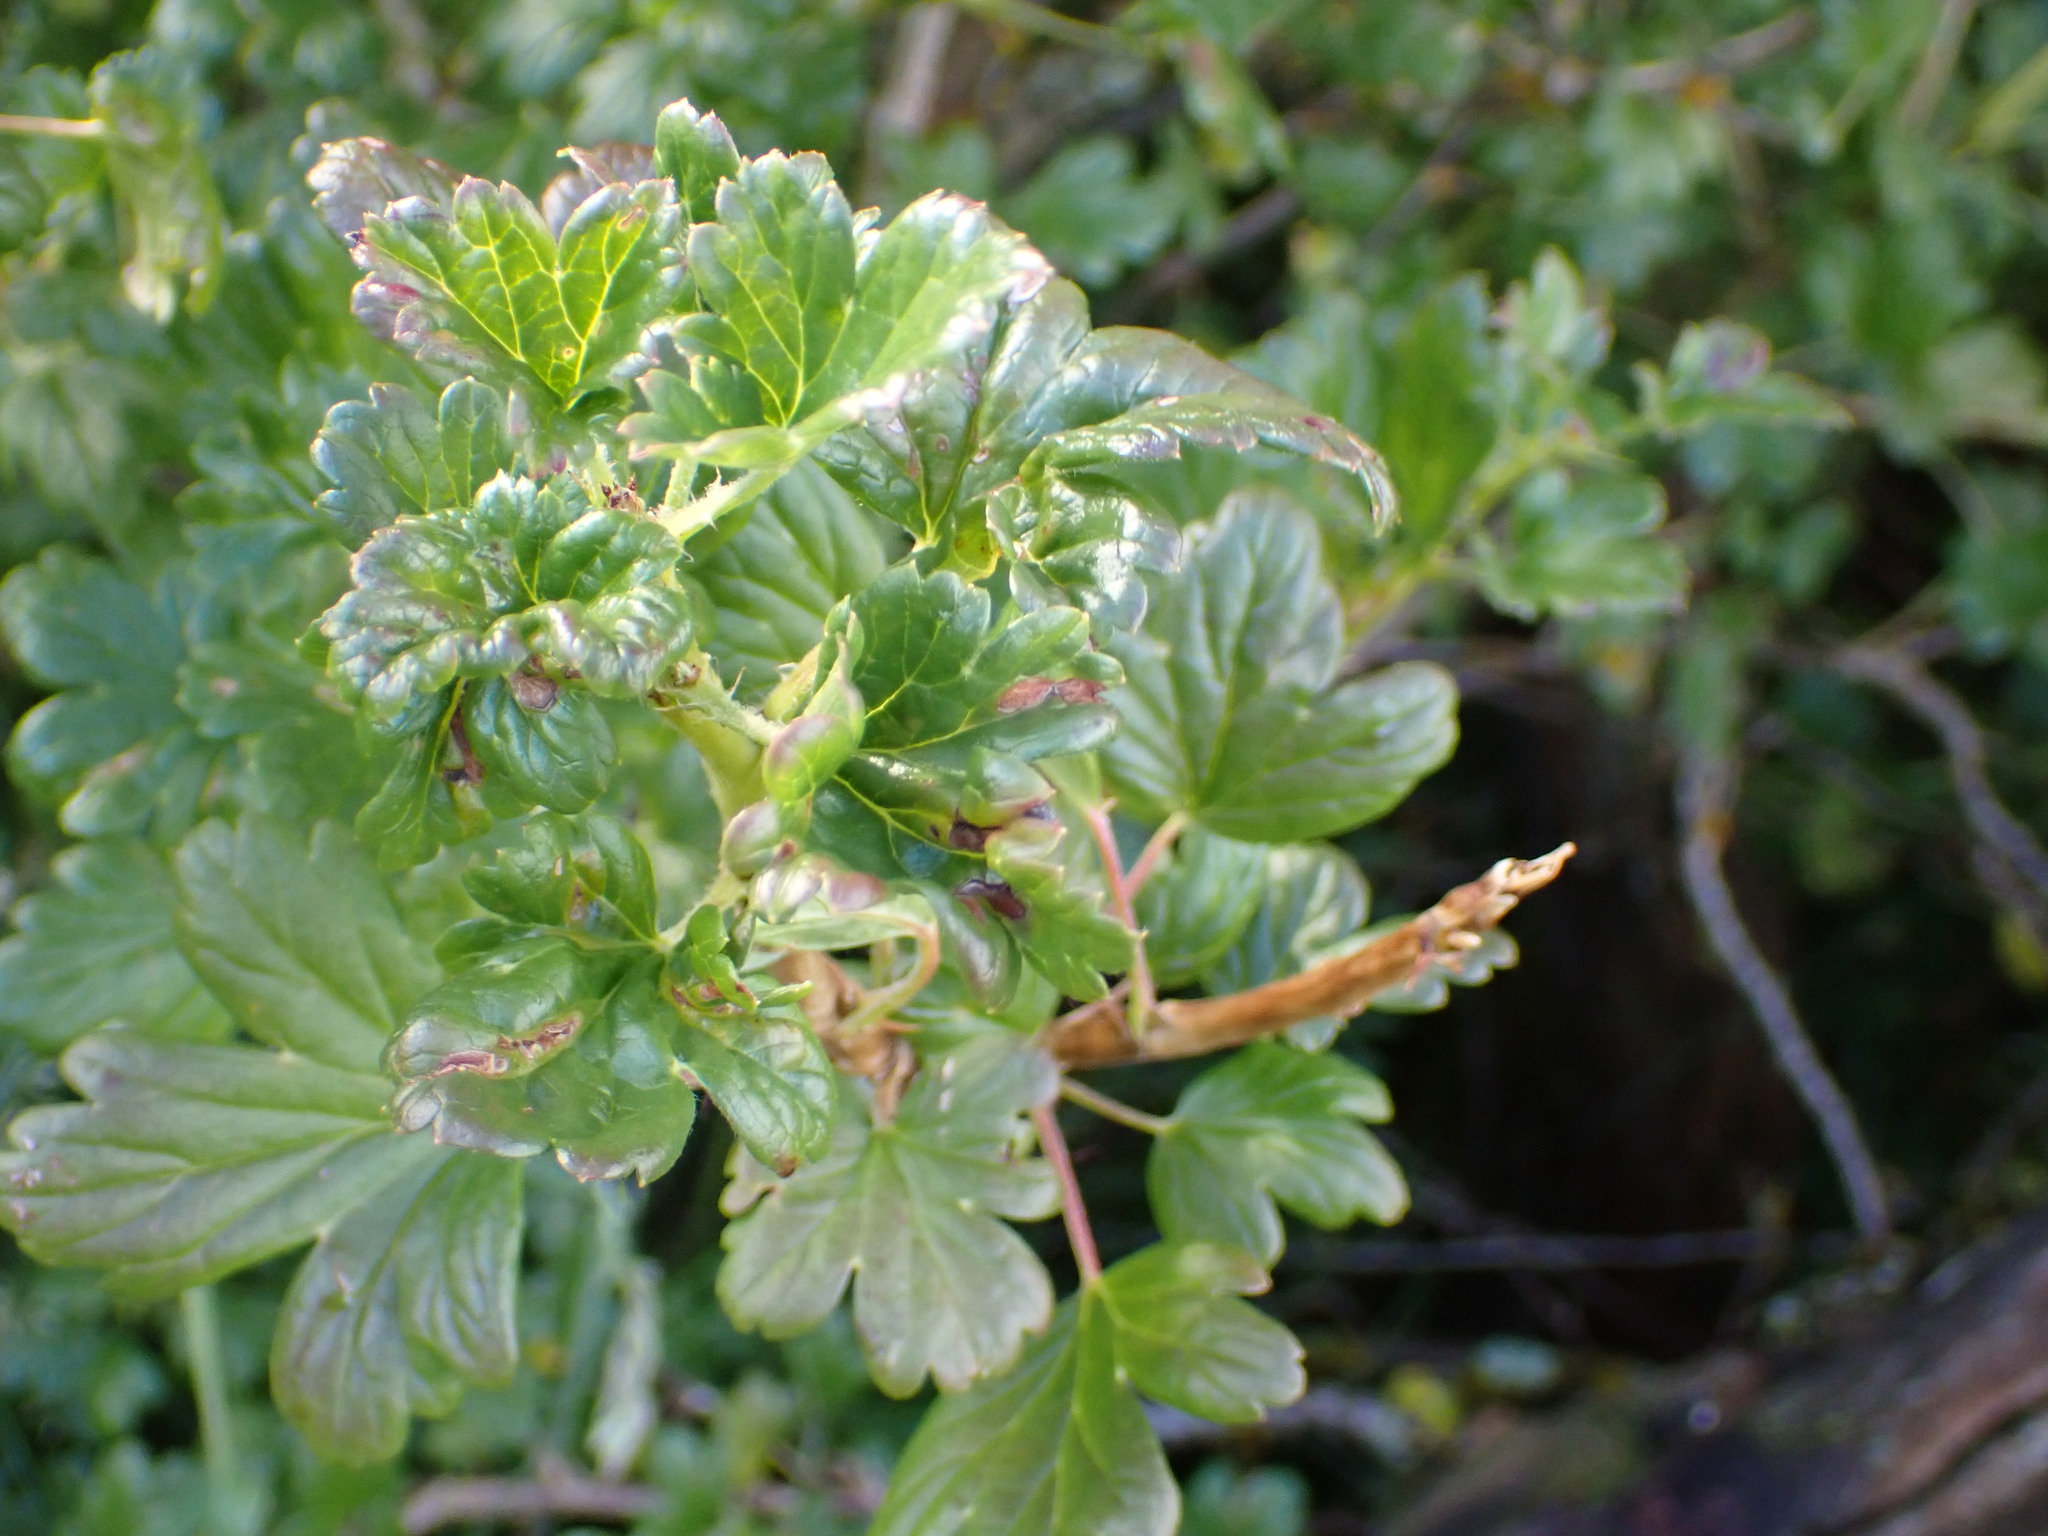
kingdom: Plantae
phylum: Tracheophyta
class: Magnoliopsida
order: Saxifragales
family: Grossulariaceae
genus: Ribes
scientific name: Ribes uva-crispa
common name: Gooseberry
